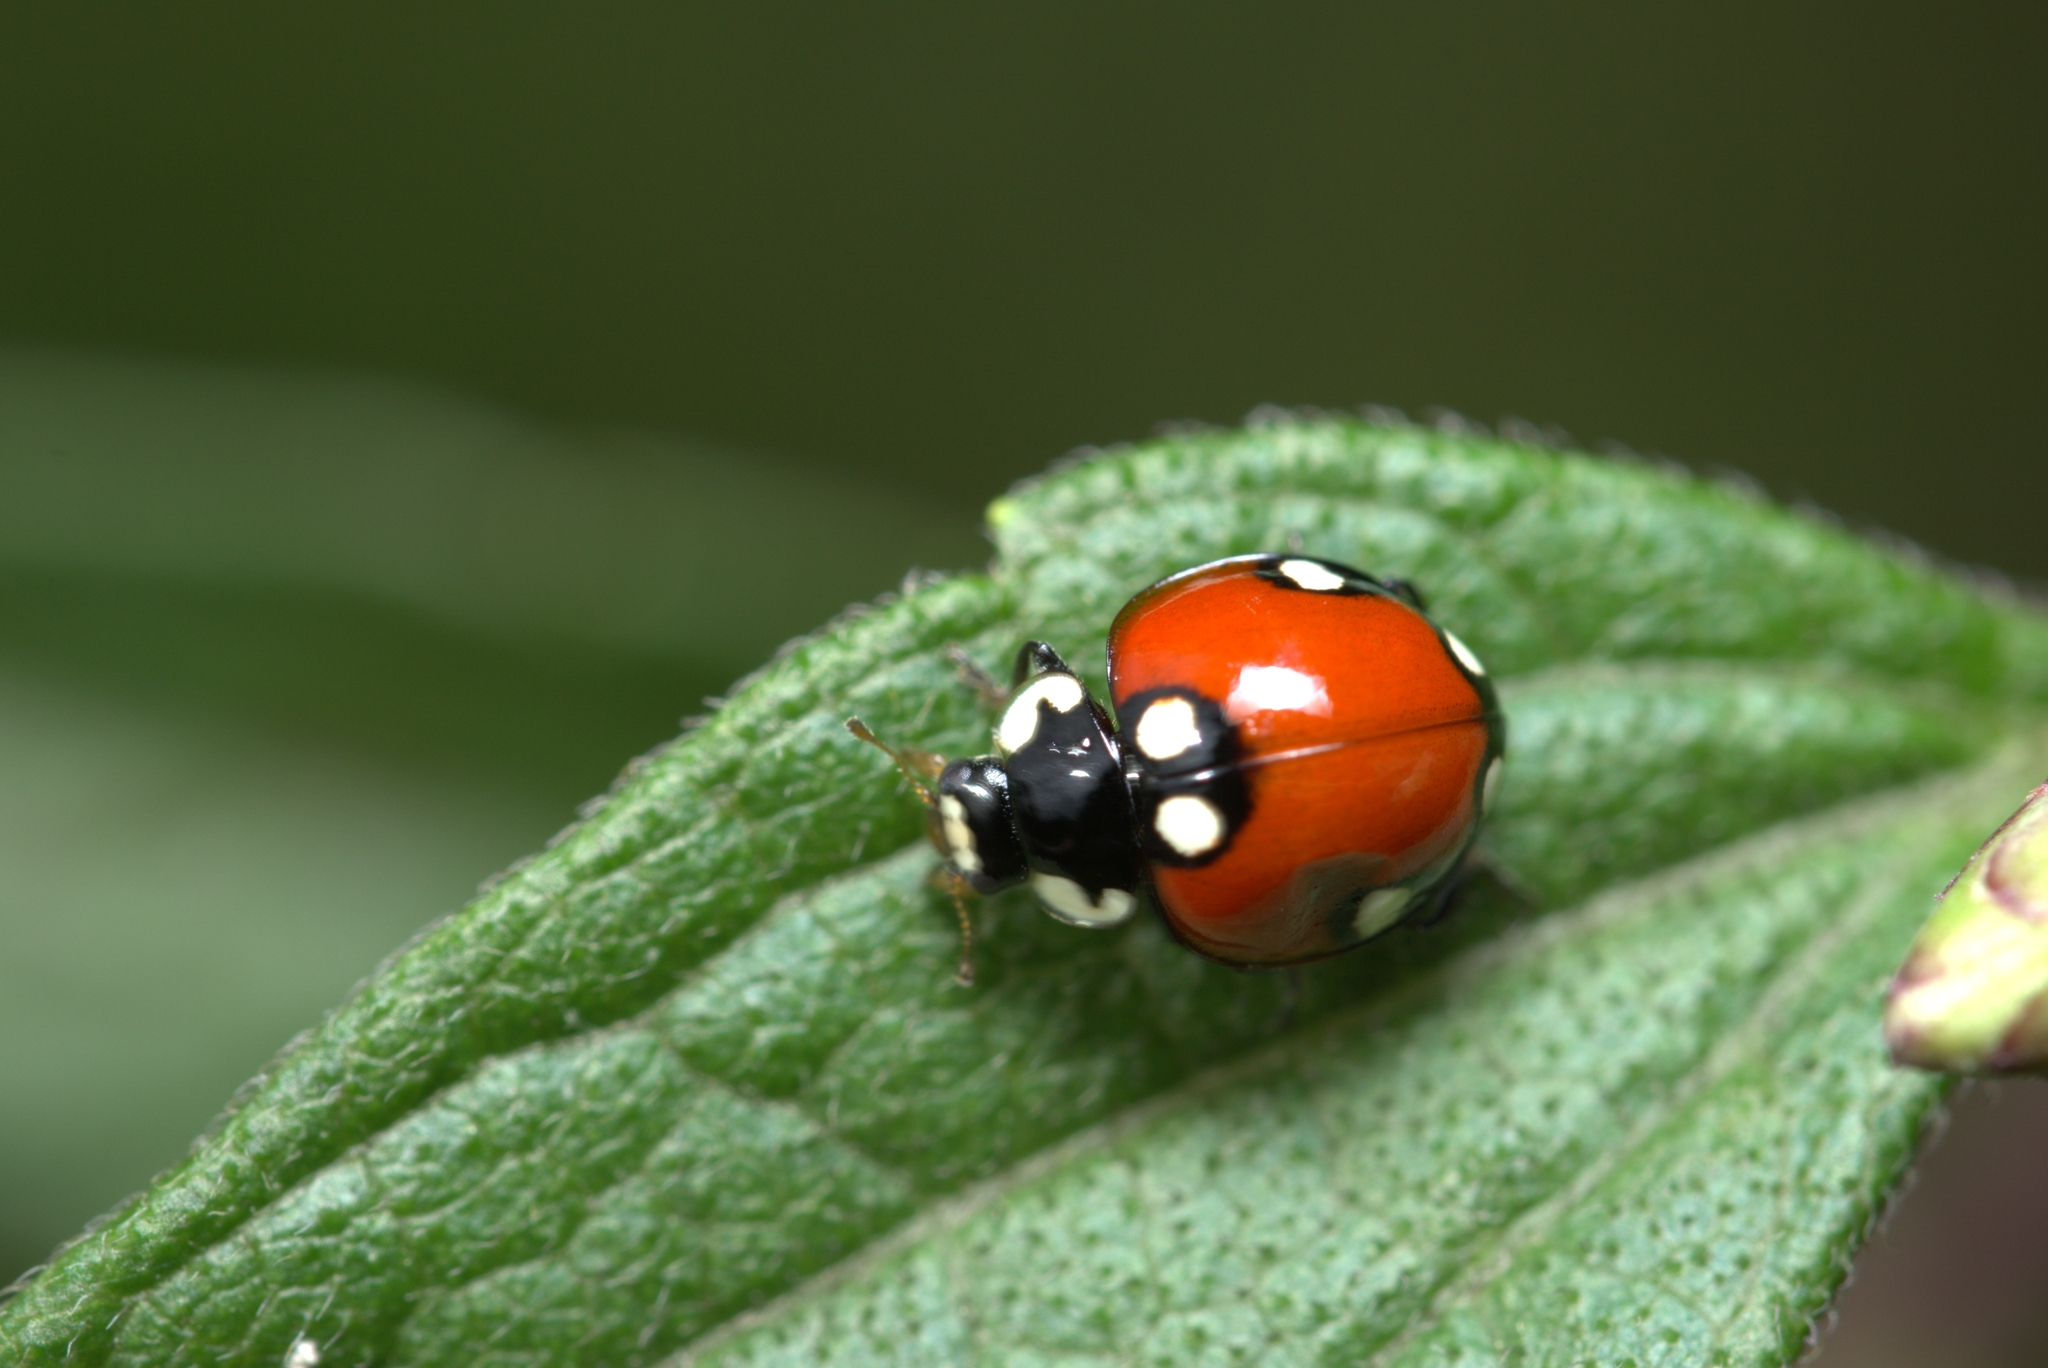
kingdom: Animalia
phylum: Arthropoda
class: Insecta
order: Coleoptera
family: Coccinellidae
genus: Cycloneda
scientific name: Cycloneda
